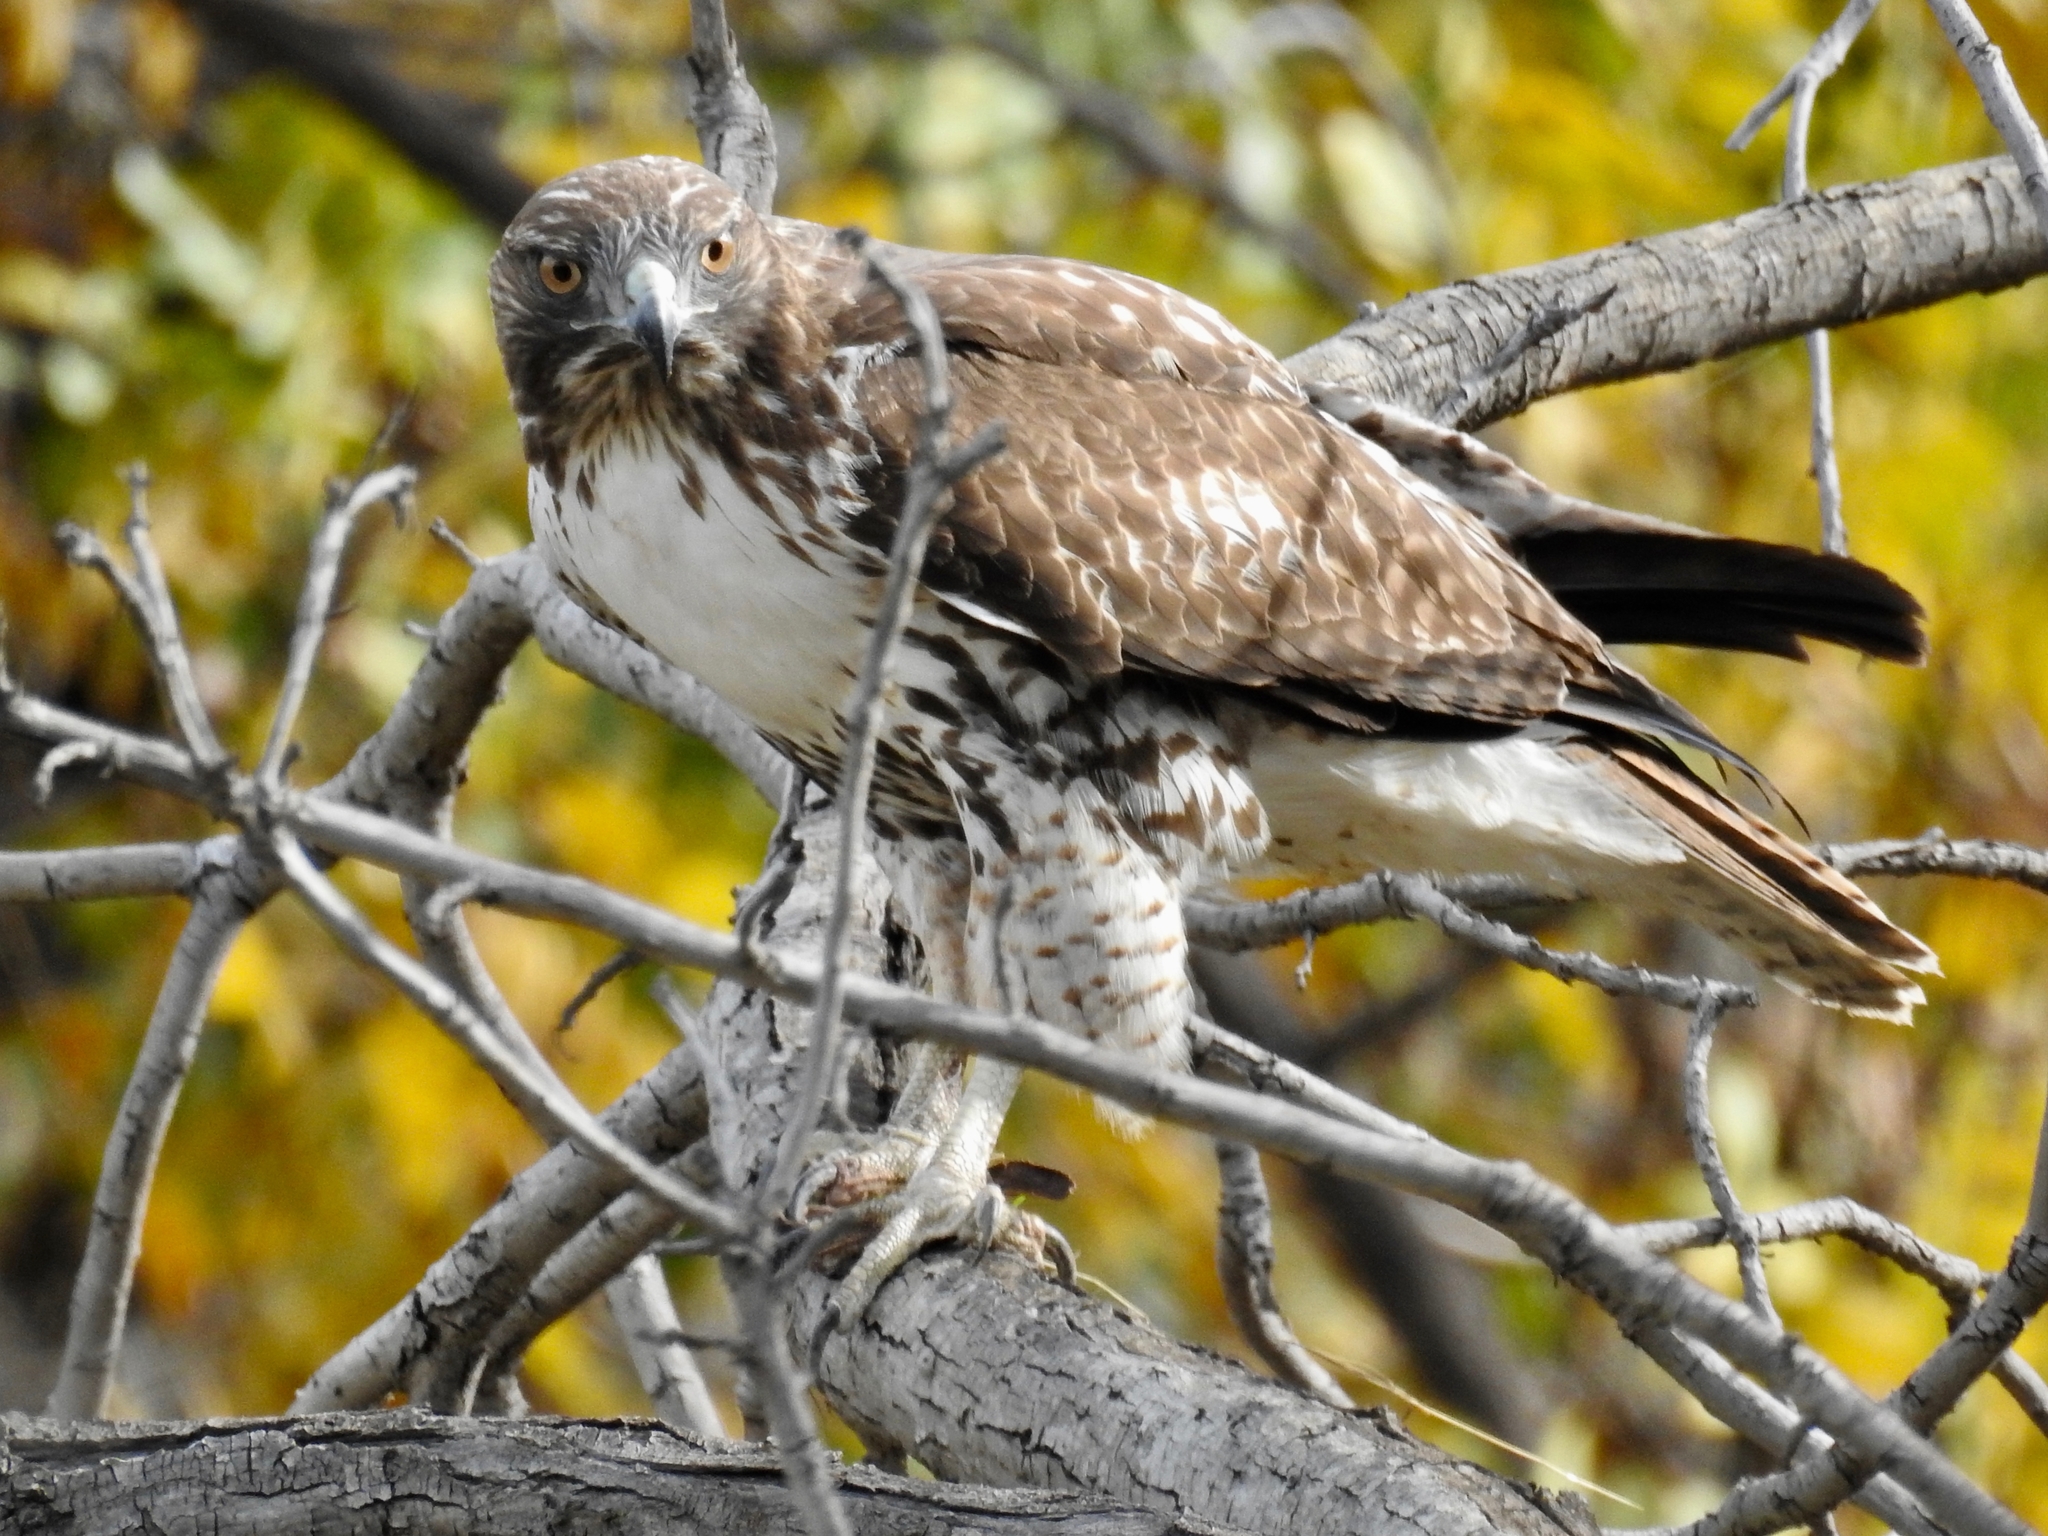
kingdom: Animalia
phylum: Chordata
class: Aves
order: Accipitriformes
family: Accipitridae
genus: Buteo
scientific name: Buteo jamaicensis
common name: Red-tailed hawk
